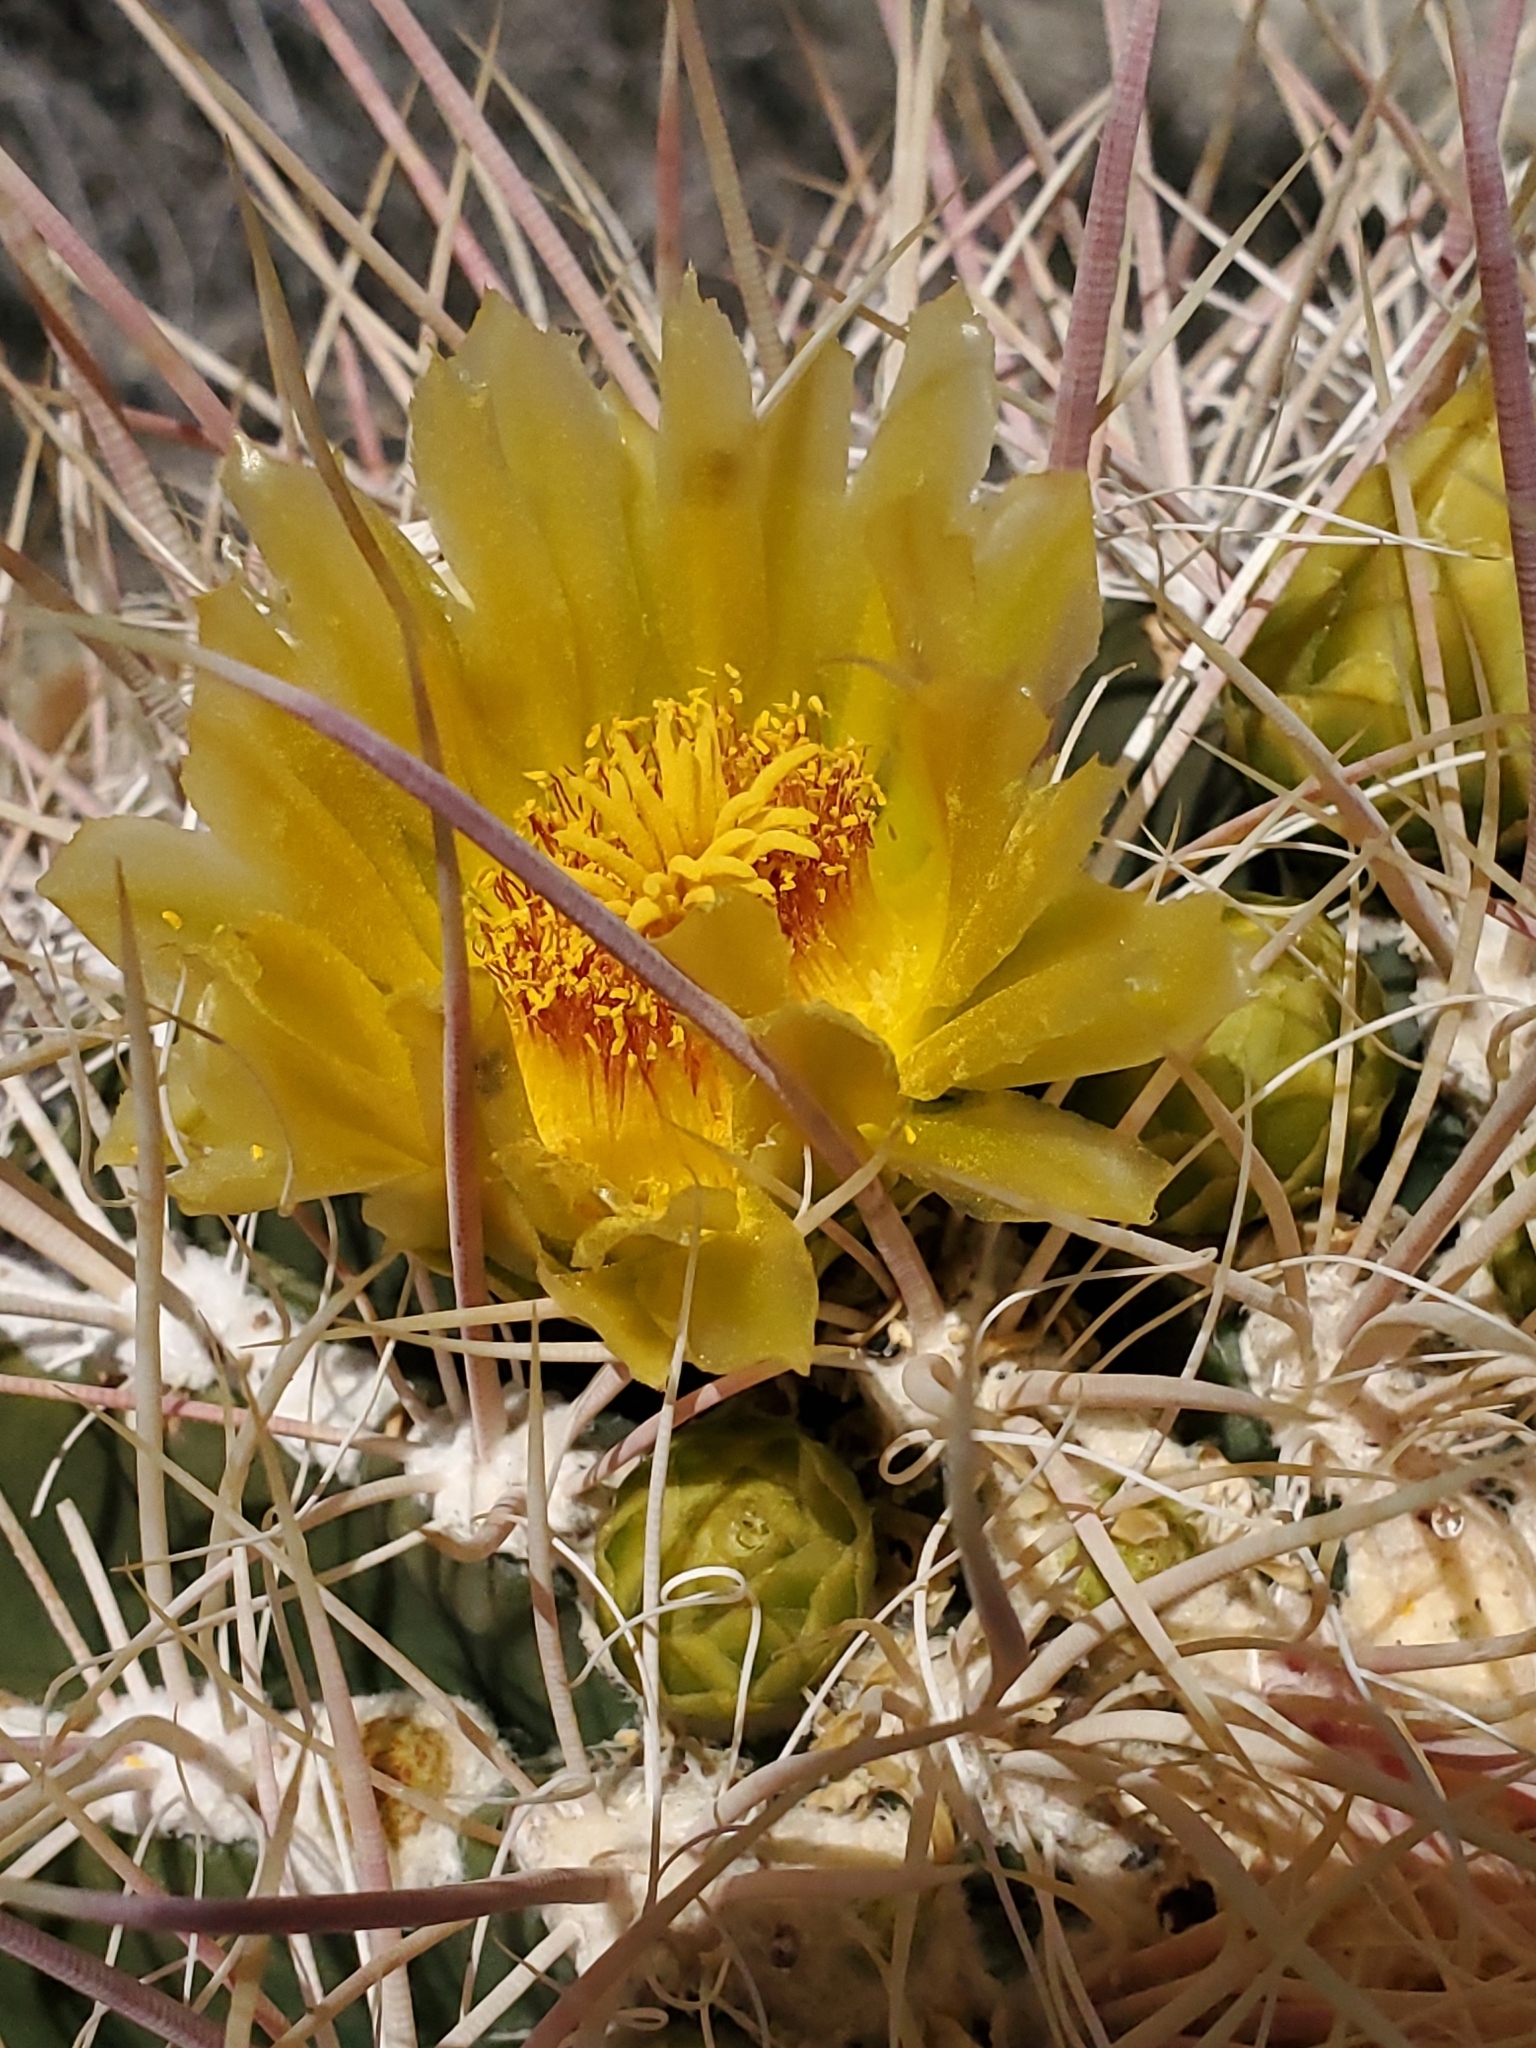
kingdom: Plantae
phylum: Tracheophyta
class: Magnoliopsida
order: Caryophyllales
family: Cactaceae
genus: Ferocactus
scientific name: Ferocactus cylindraceus
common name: California barrel cactus
